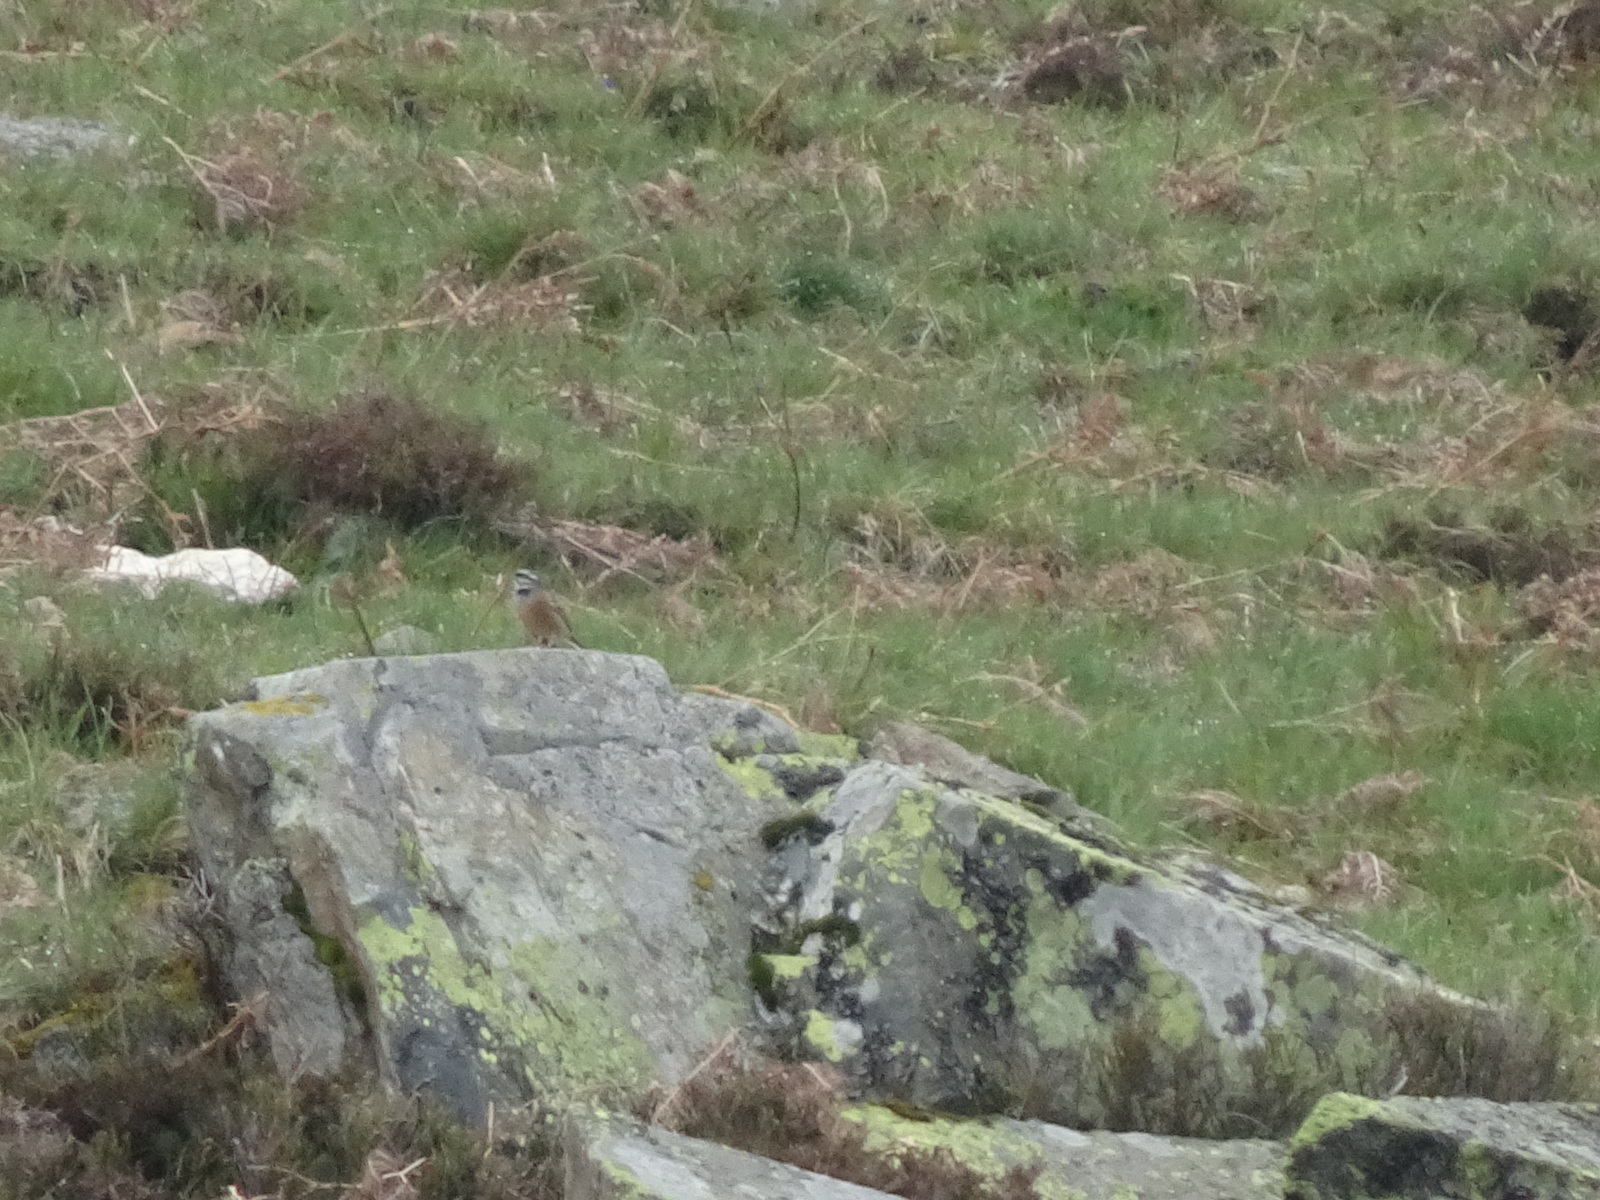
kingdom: Animalia
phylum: Chordata
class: Aves
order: Passeriformes
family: Emberizidae
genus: Emberiza
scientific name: Emberiza cia
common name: Rock bunting
